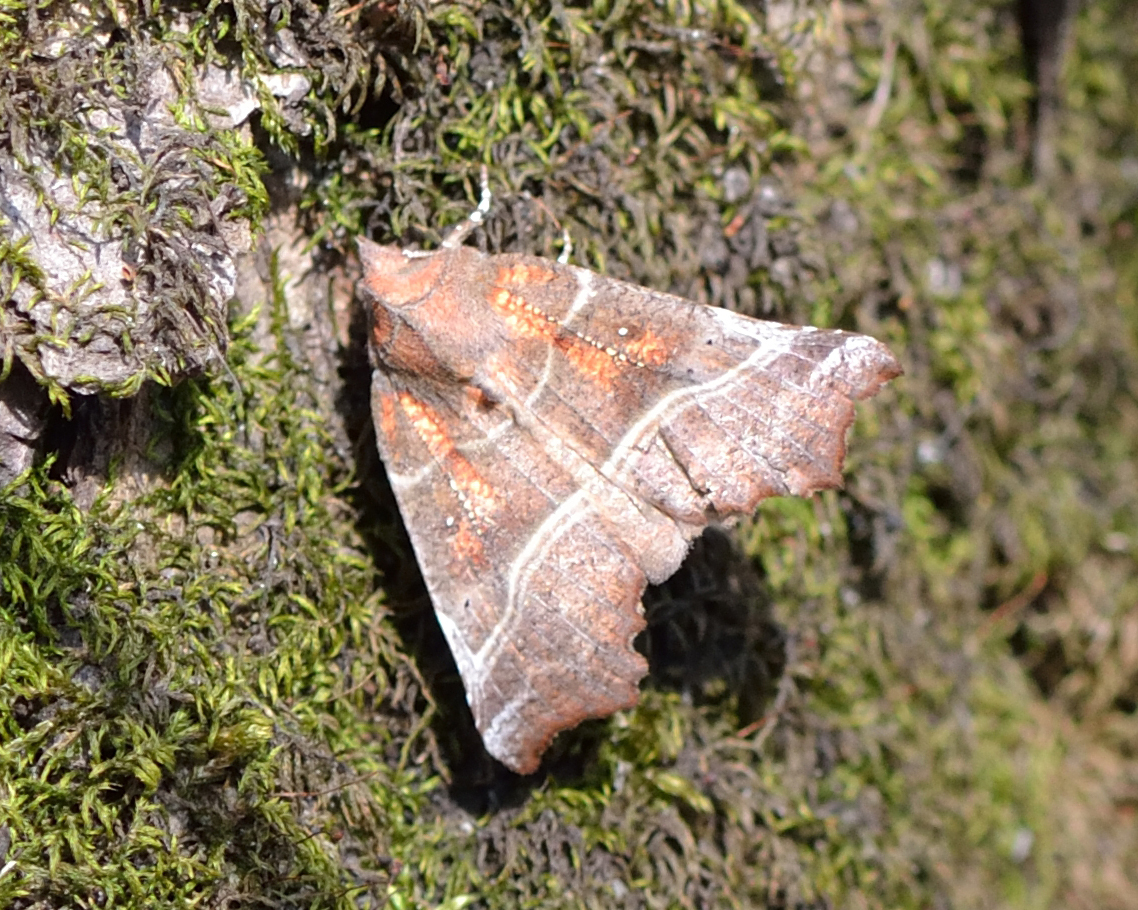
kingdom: Animalia
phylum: Arthropoda
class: Insecta
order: Lepidoptera
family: Erebidae
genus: Scoliopteryx
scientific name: Scoliopteryx libatrix
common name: Herald
